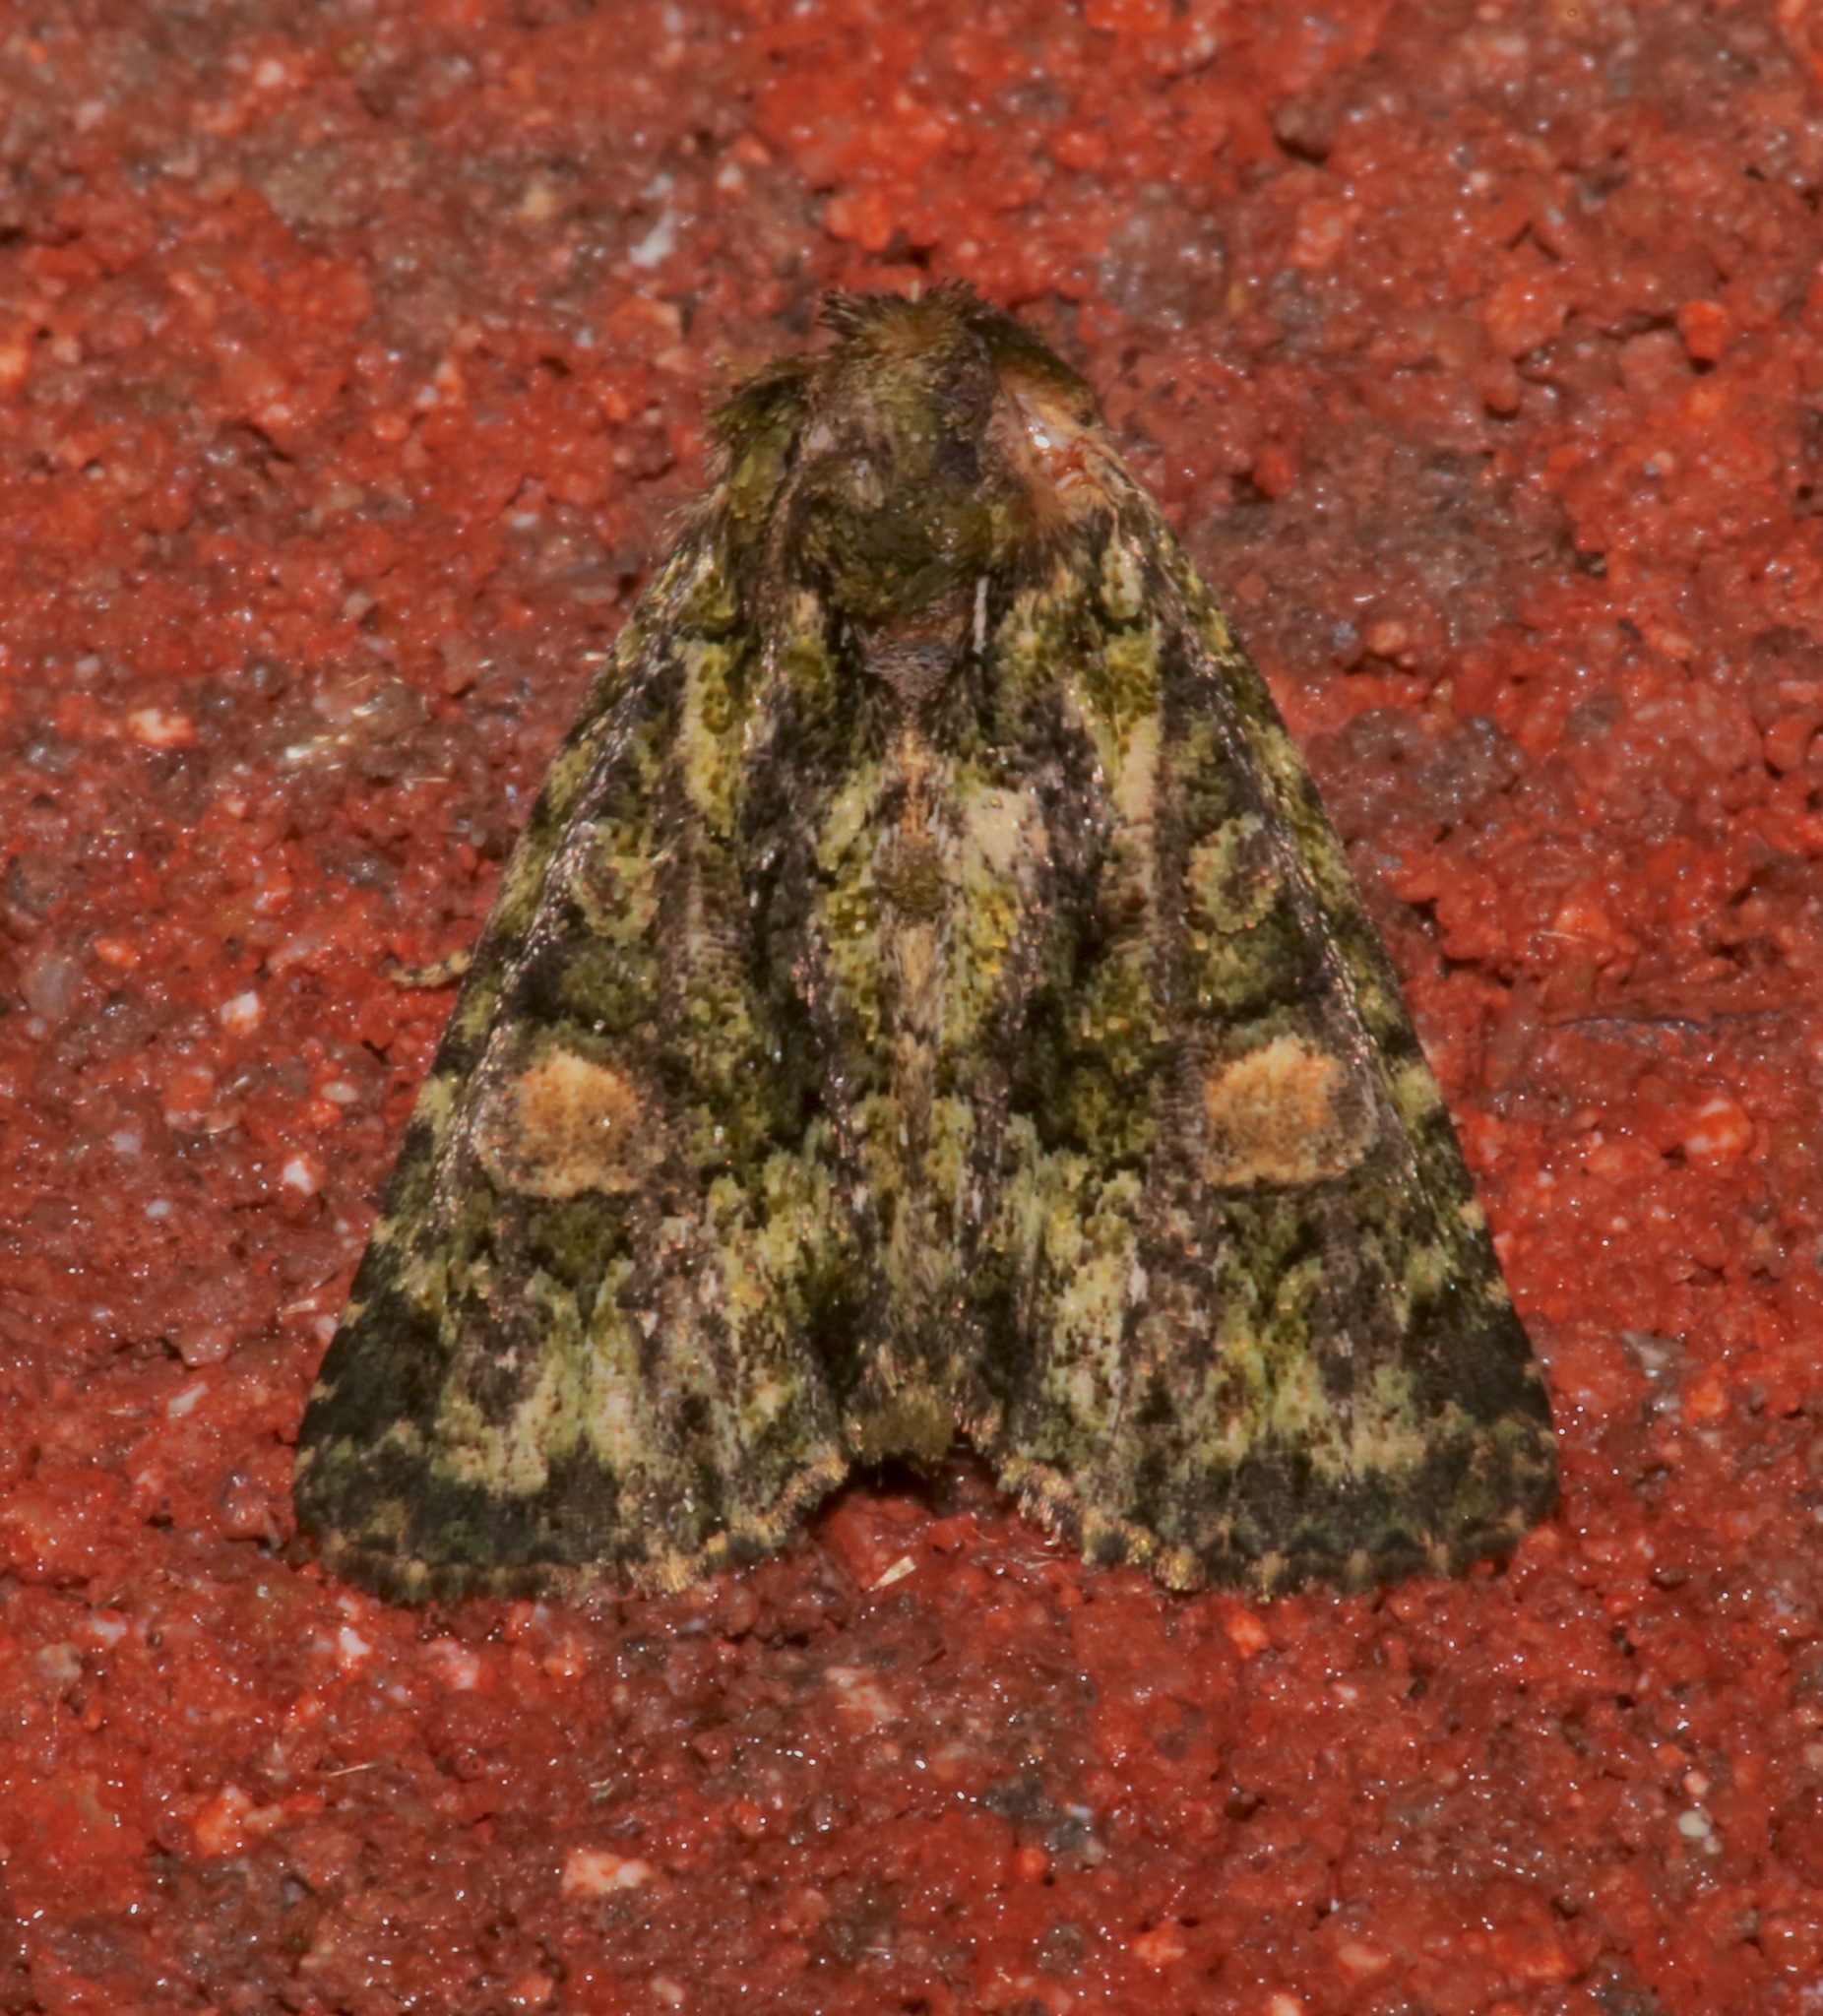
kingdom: Animalia
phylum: Arthropoda
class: Insecta
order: Lepidoptera
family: Noctuidae
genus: Phosphila
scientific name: Phosphila miselioides
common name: Spotted phosphila moth
